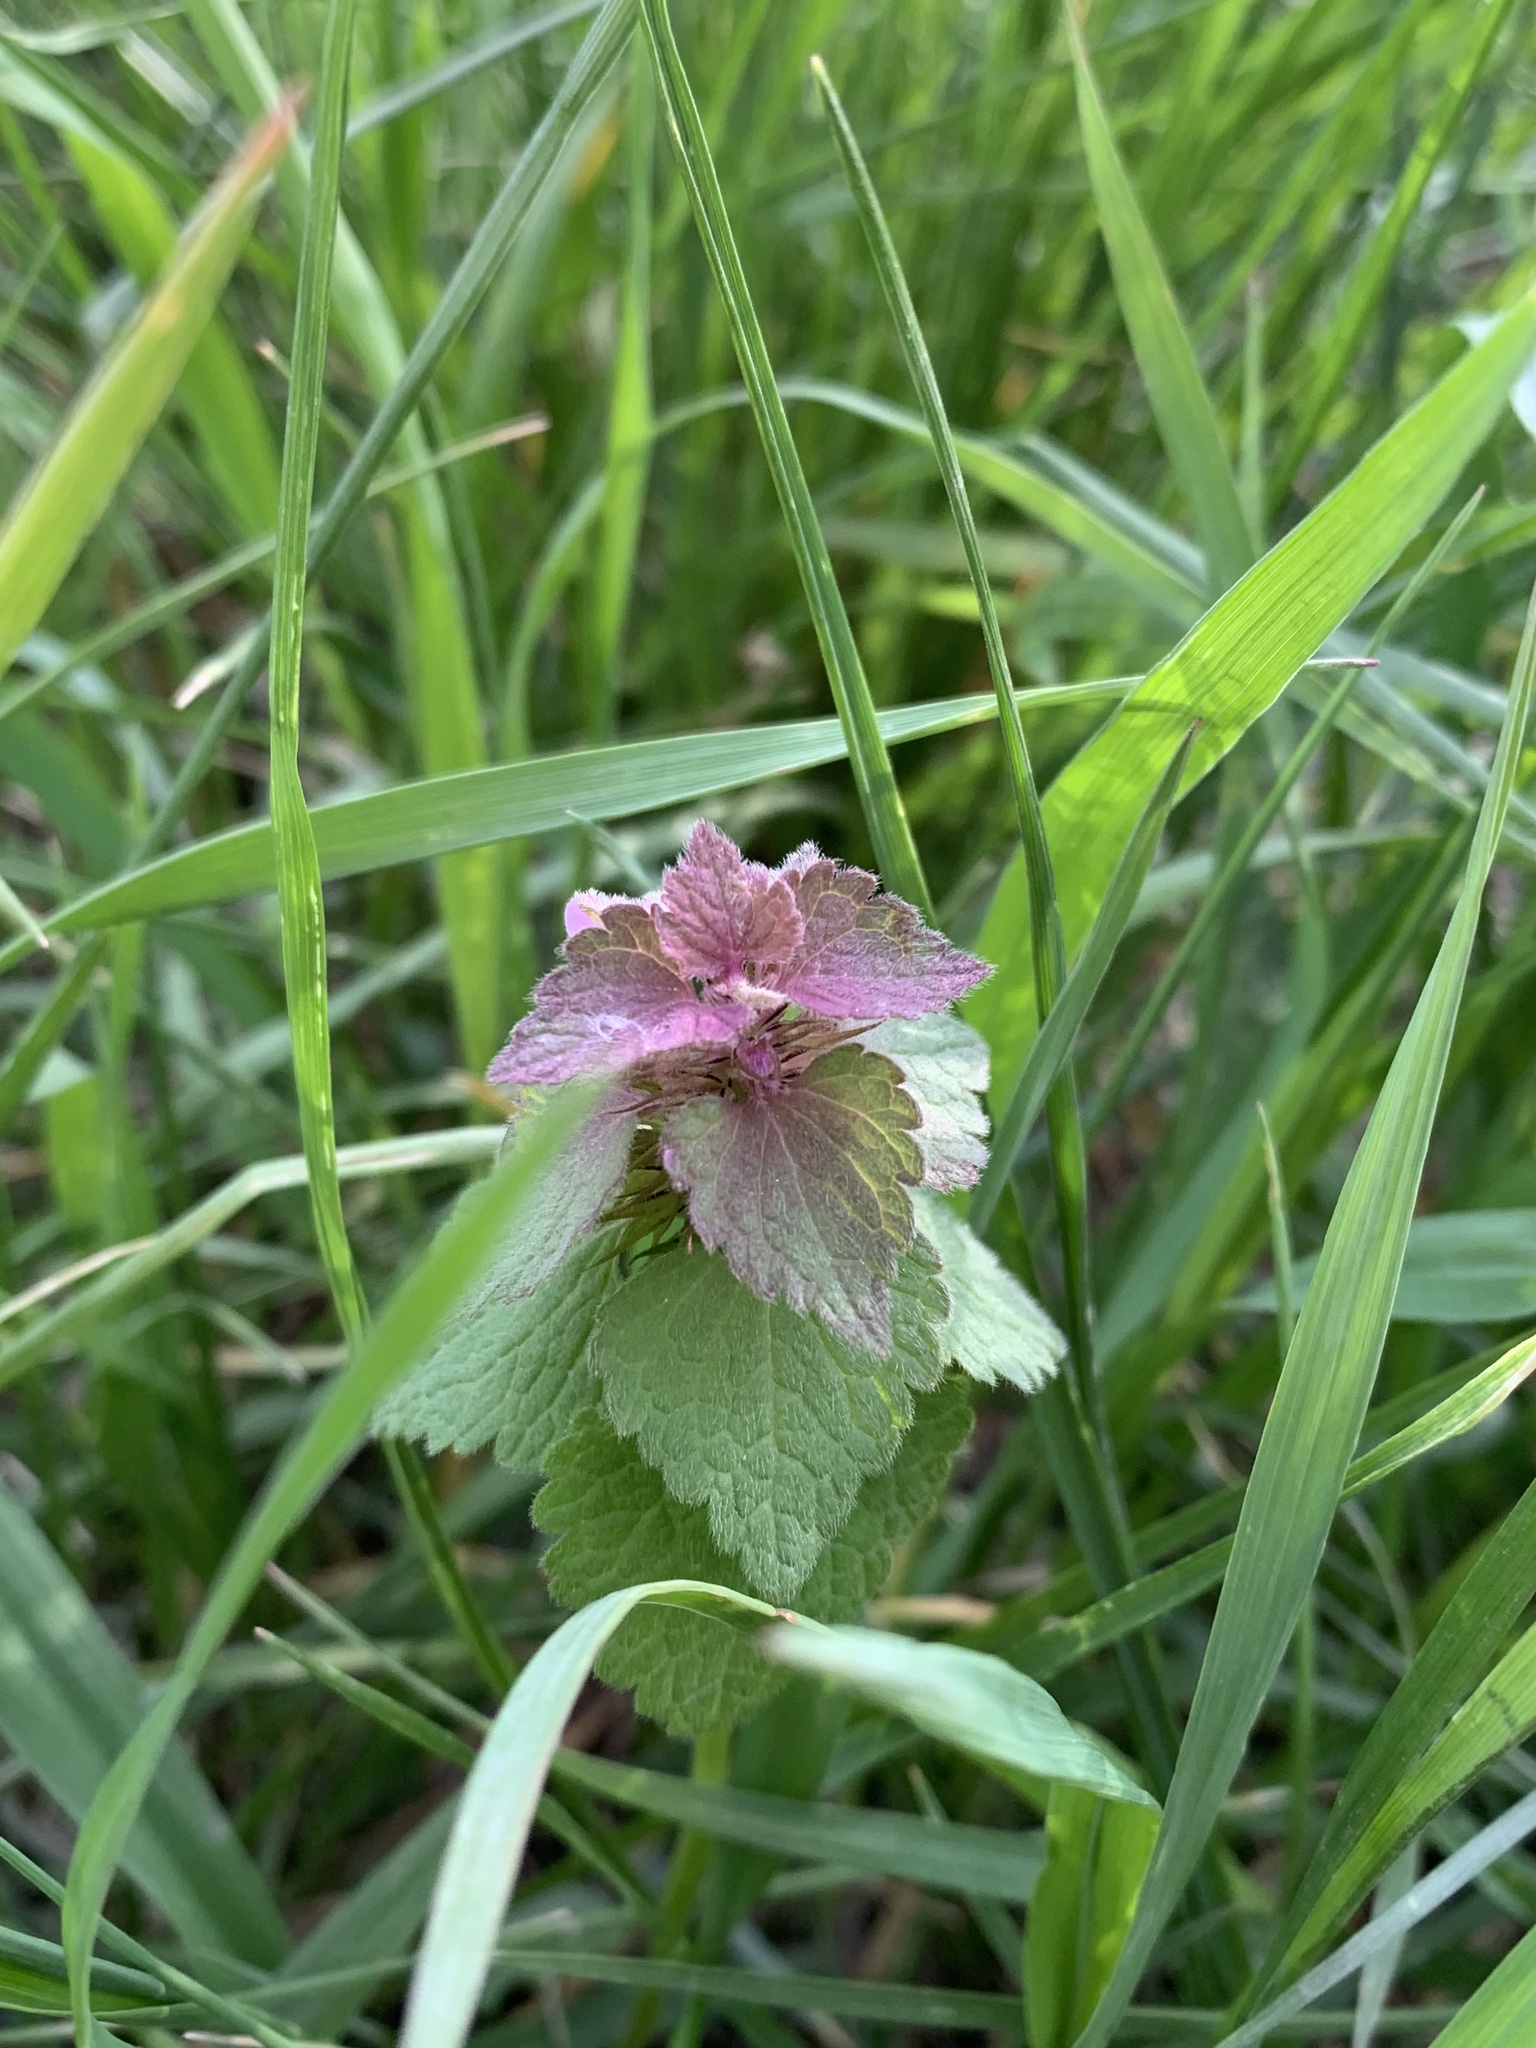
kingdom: Plantae
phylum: Tracheophyta
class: Magnoliopsida
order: Lamiales
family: Lamiaceae
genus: Lamium
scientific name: Lamium purpureum
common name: Red dead-nettle
